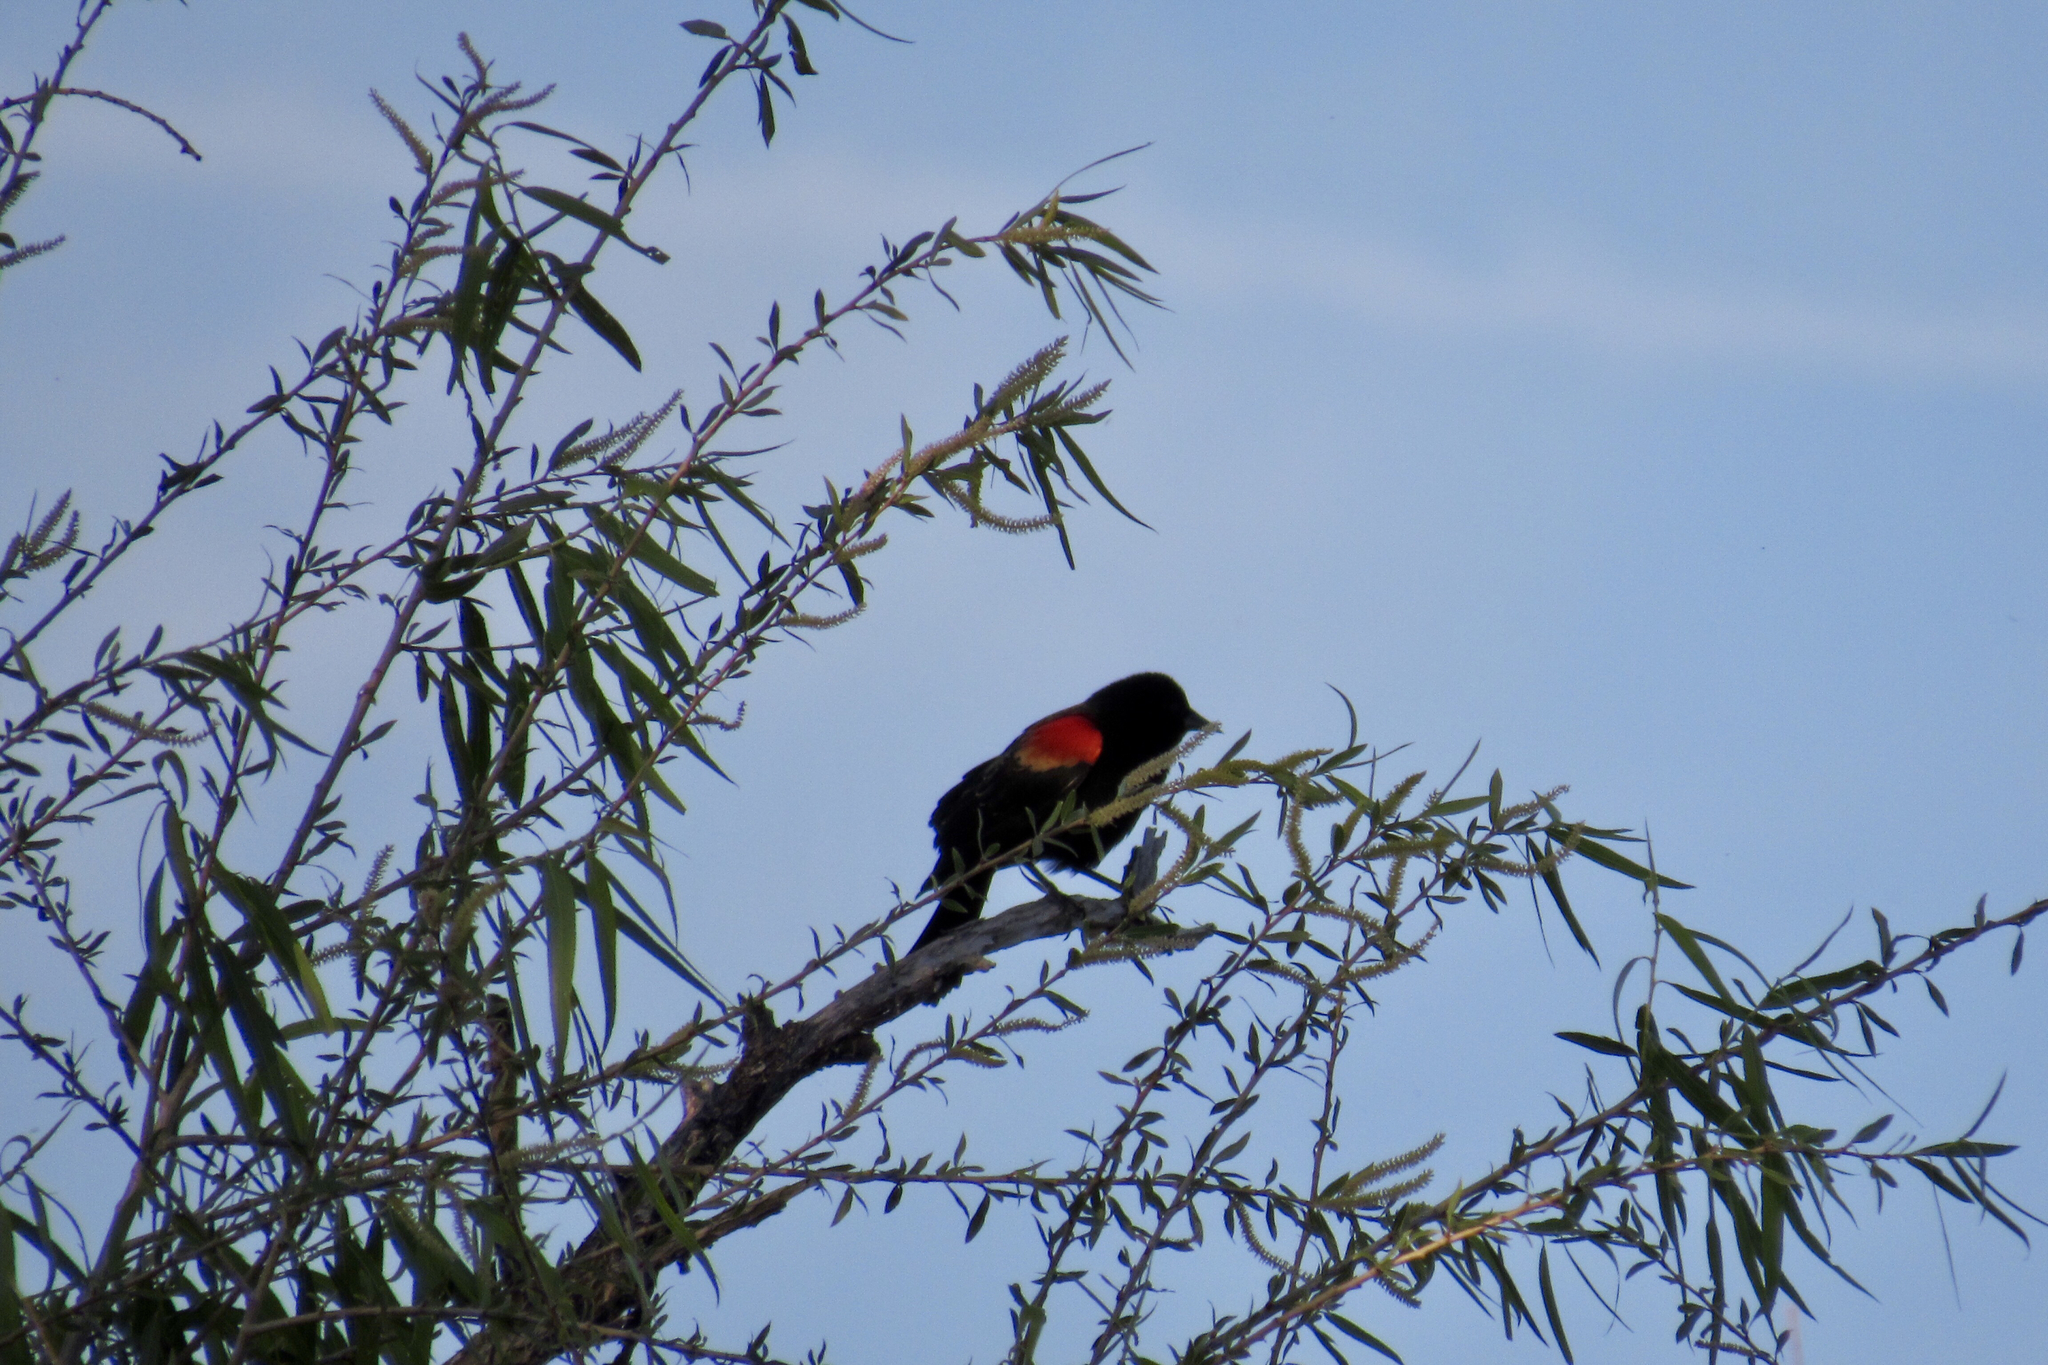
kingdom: Animalia
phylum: Chordata
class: Aves
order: Passeriformes
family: Icteridae
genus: Agelaius
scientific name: Agelaius phoeniceus
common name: Red-winged blackbird
